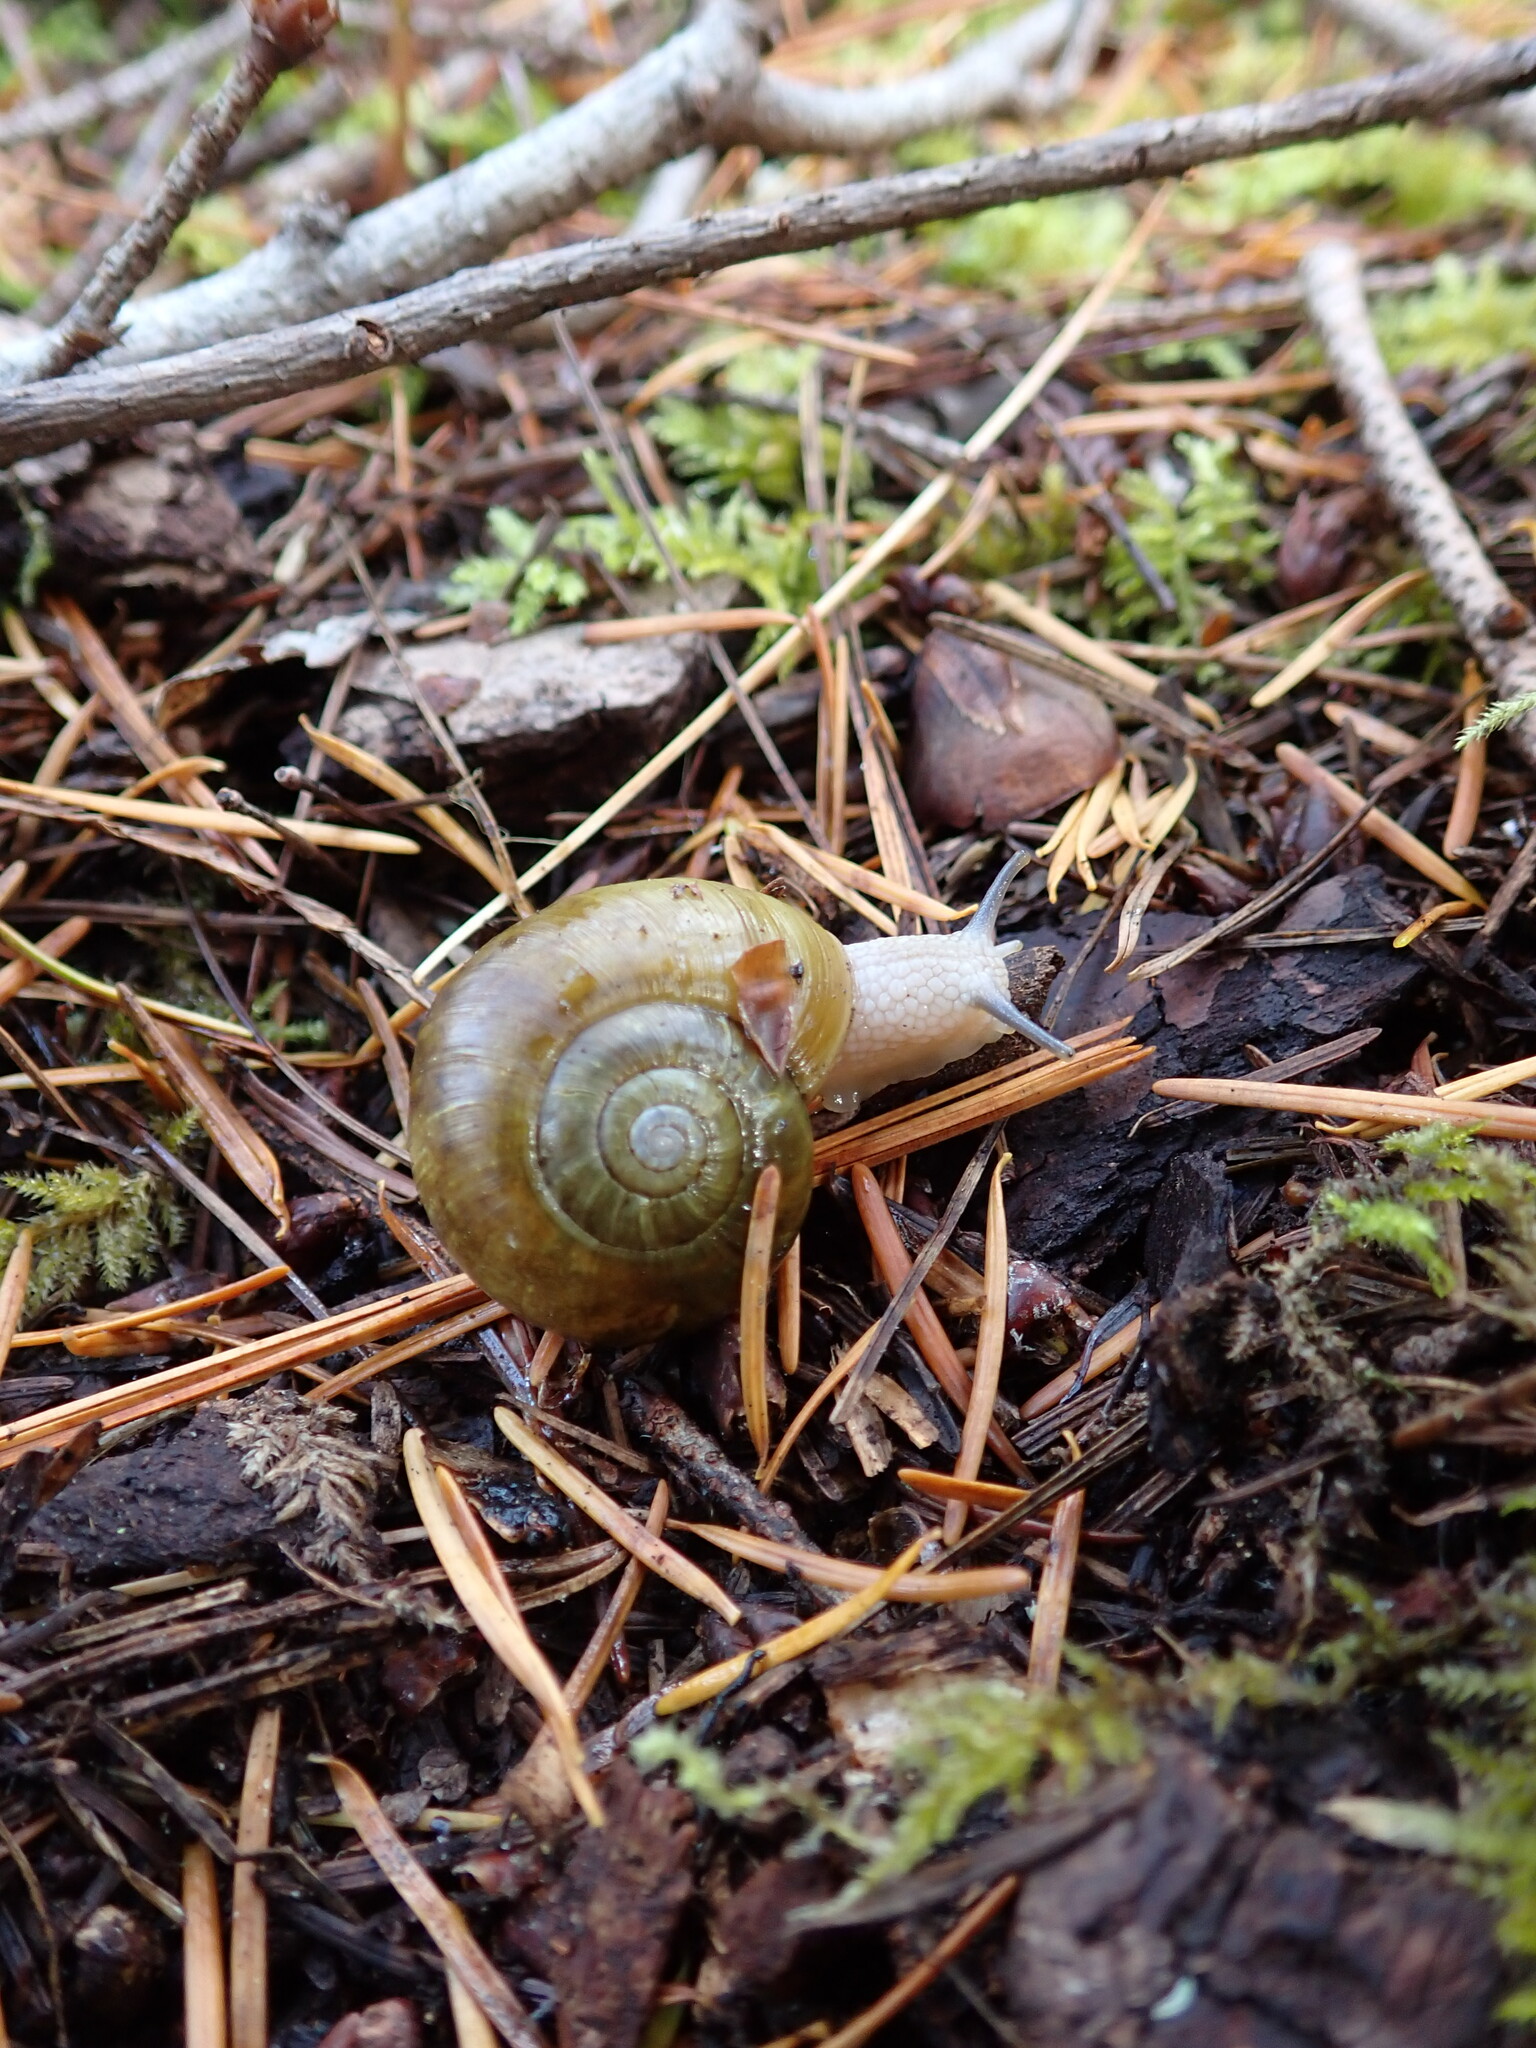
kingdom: Animalia
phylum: Mollusca
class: Gastropoda
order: Stylommatophora
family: Haplotrematidae
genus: Haplotrema
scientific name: Haplotrema vancouverense
